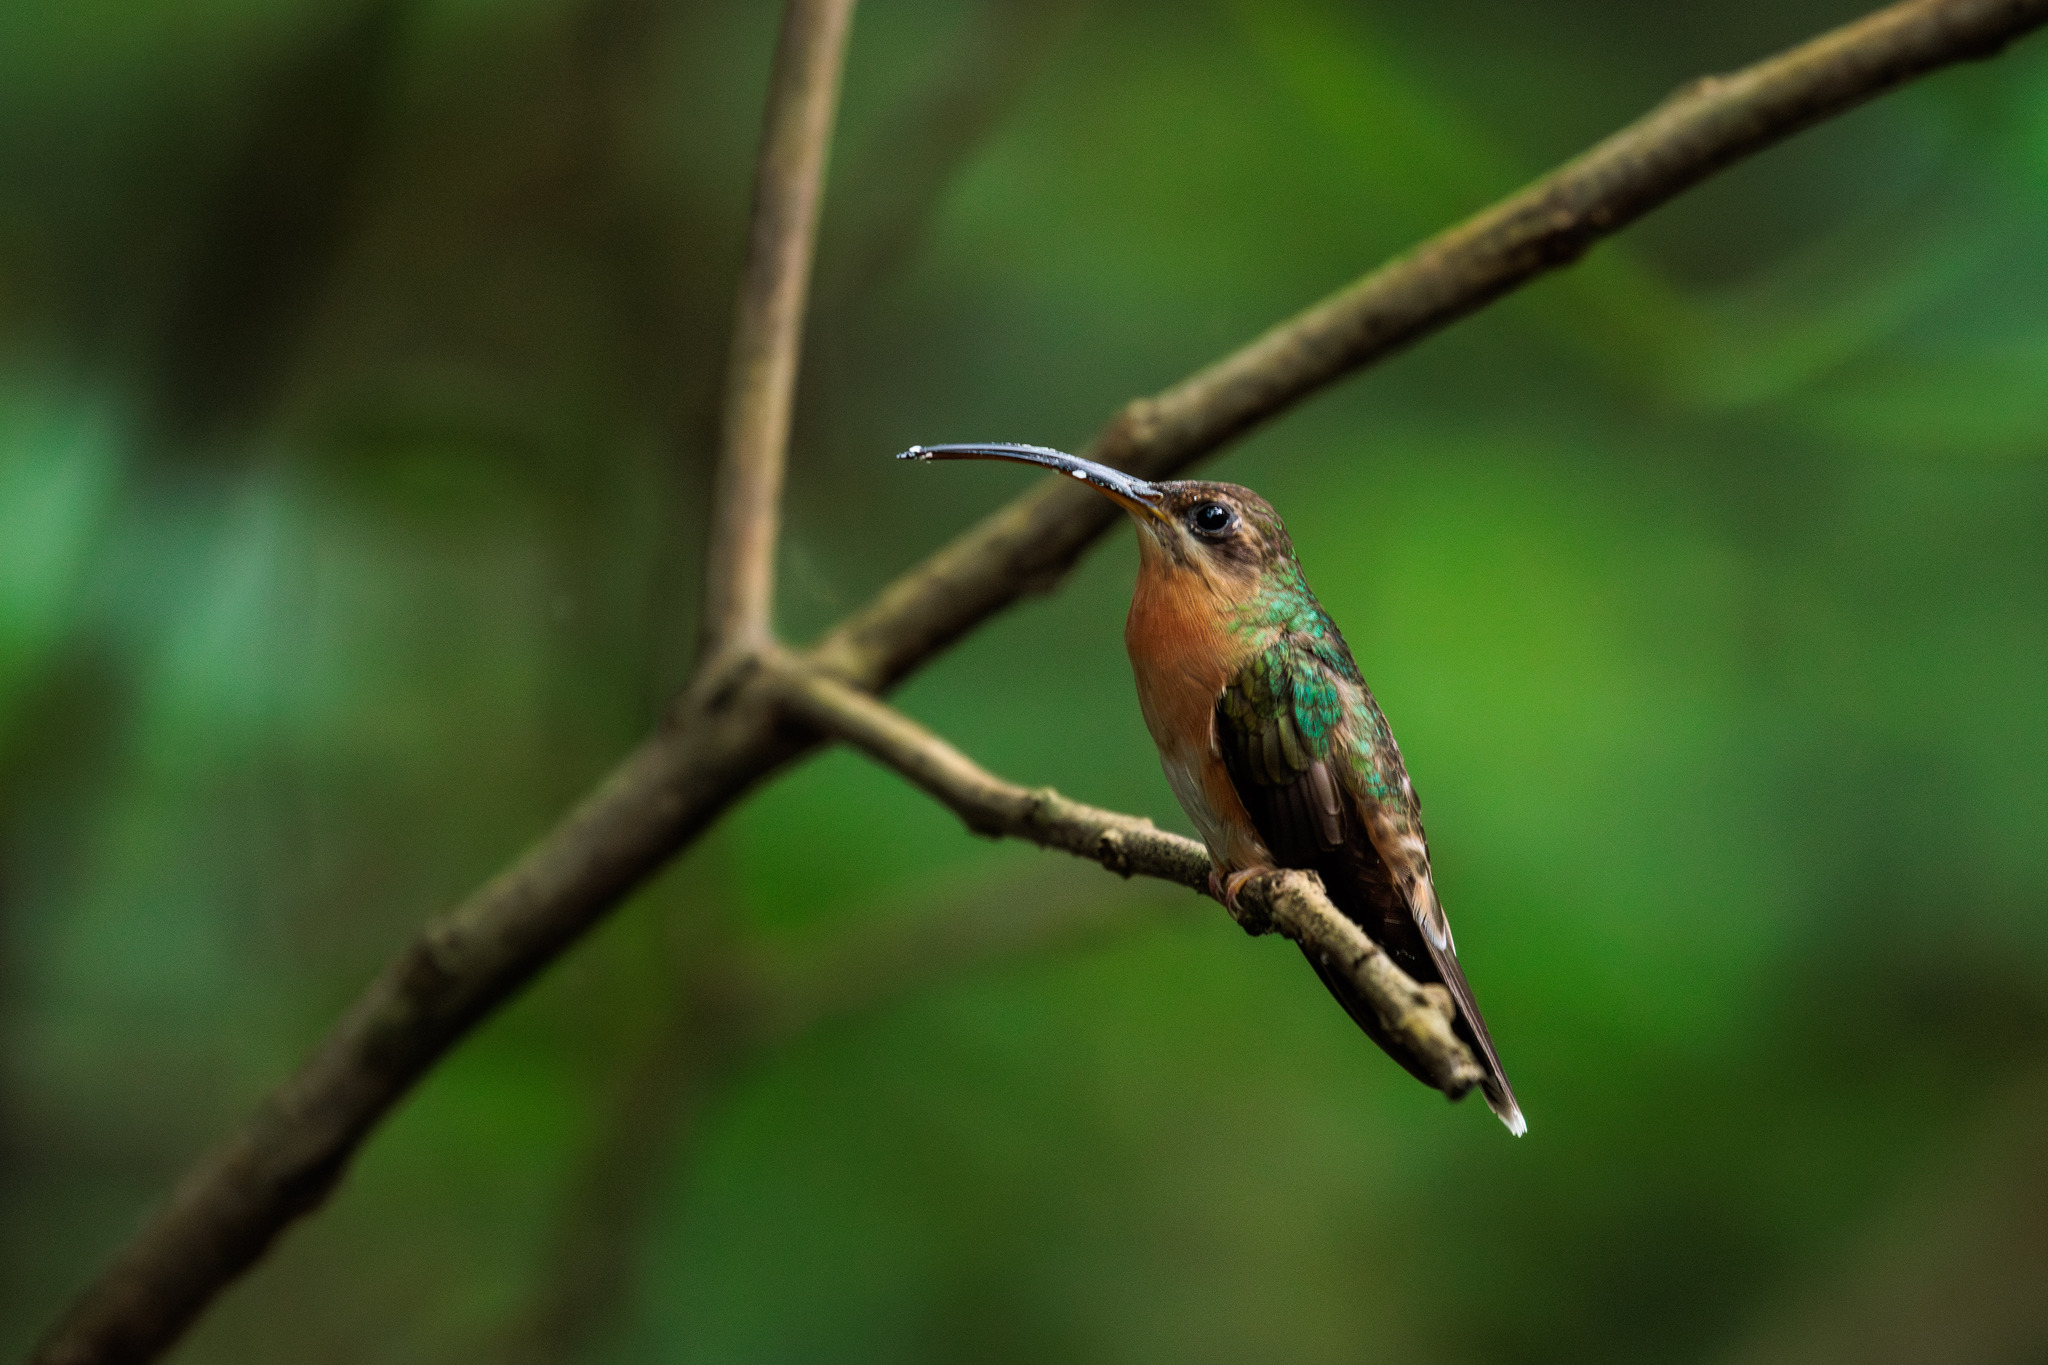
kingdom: Animalia
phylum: Chordata
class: Aves
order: Apodiformes
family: Trochilidae
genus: Glaucis
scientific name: Glaucis hirsutus
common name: Rufous-breasted hermit
